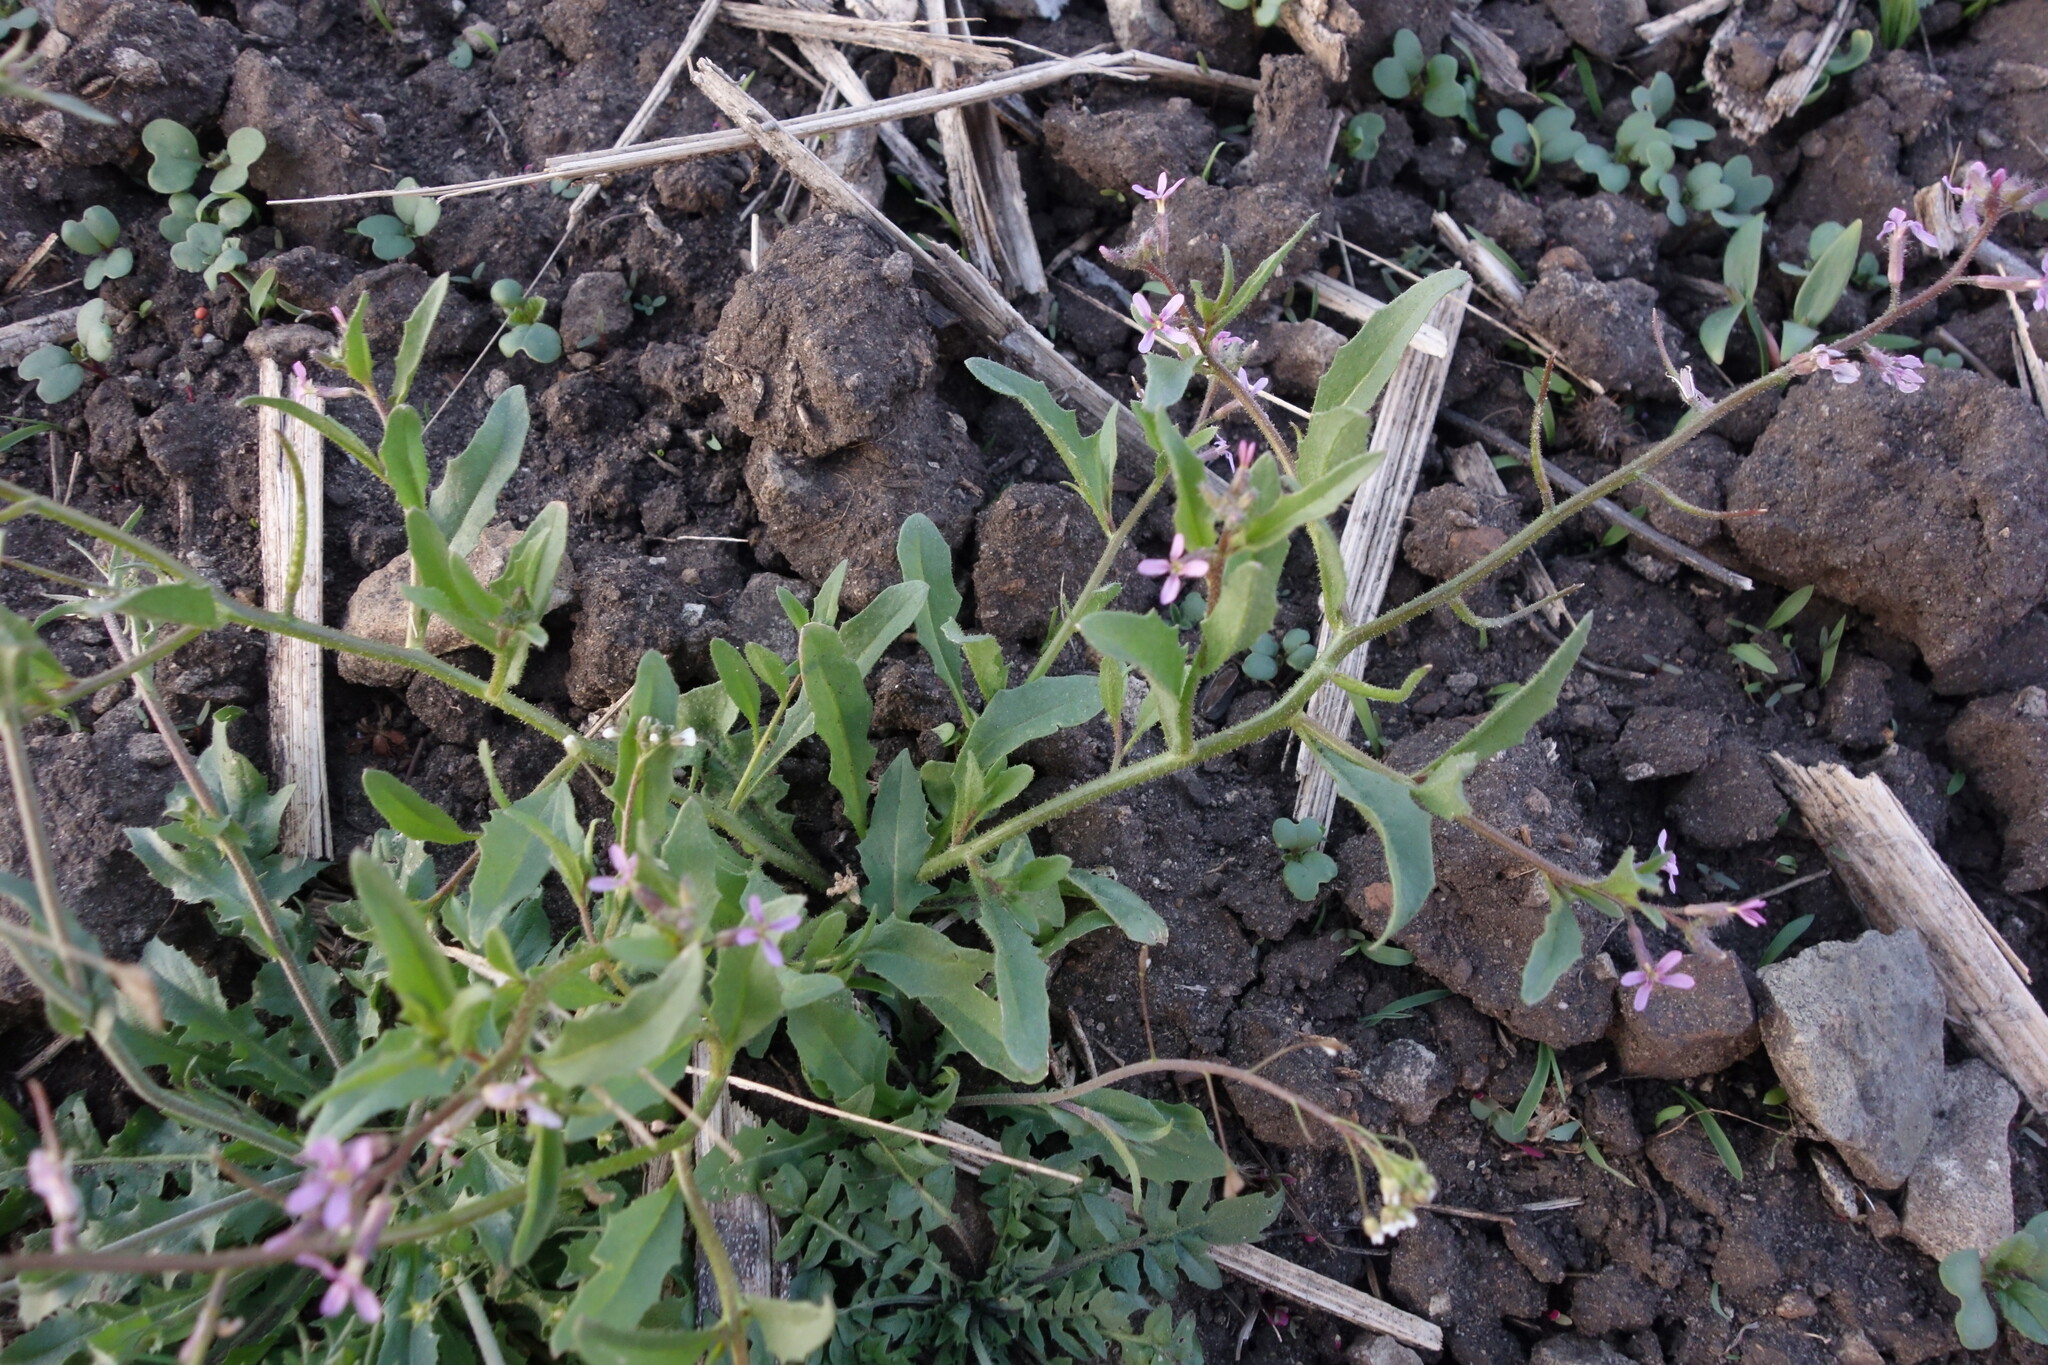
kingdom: Plantae
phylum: Tracheophyta
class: Magnoliopsida
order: Brassicales
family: Brassicaceae
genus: Chorispora
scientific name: Chorispora tenella
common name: Crossflower
